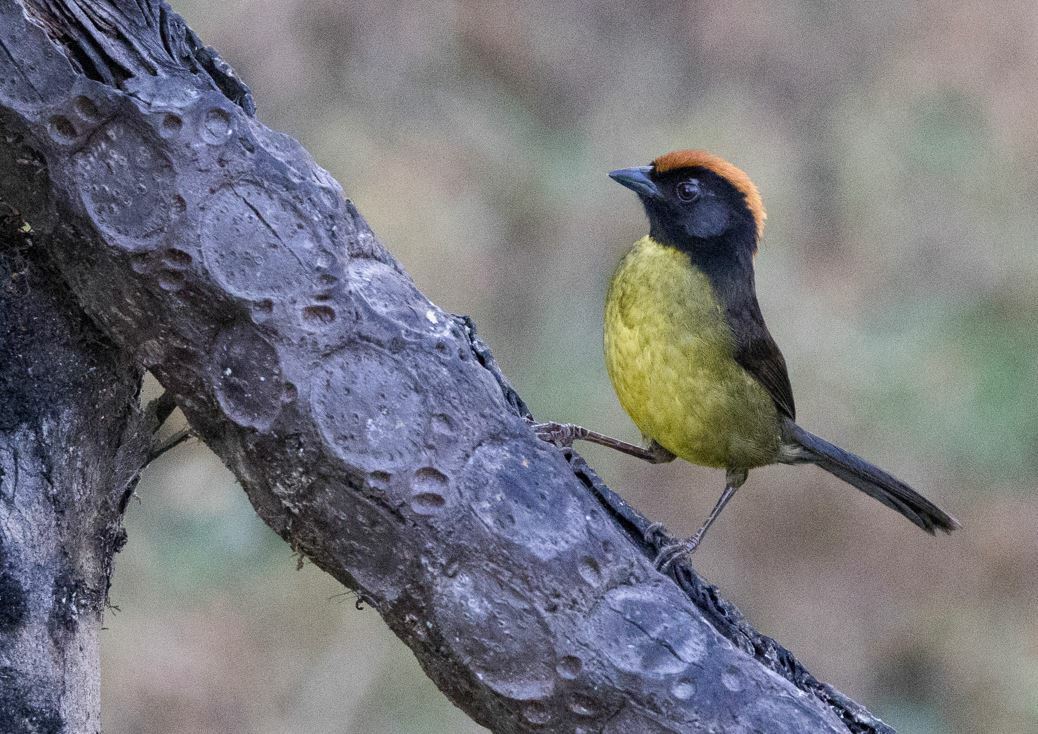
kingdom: Animalia
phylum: Chordata
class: Aves
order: Passeriformes
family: Passerellidae
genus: Atlapetes
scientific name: Atlapetes melanolaemus
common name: Grey-eared brush finch
